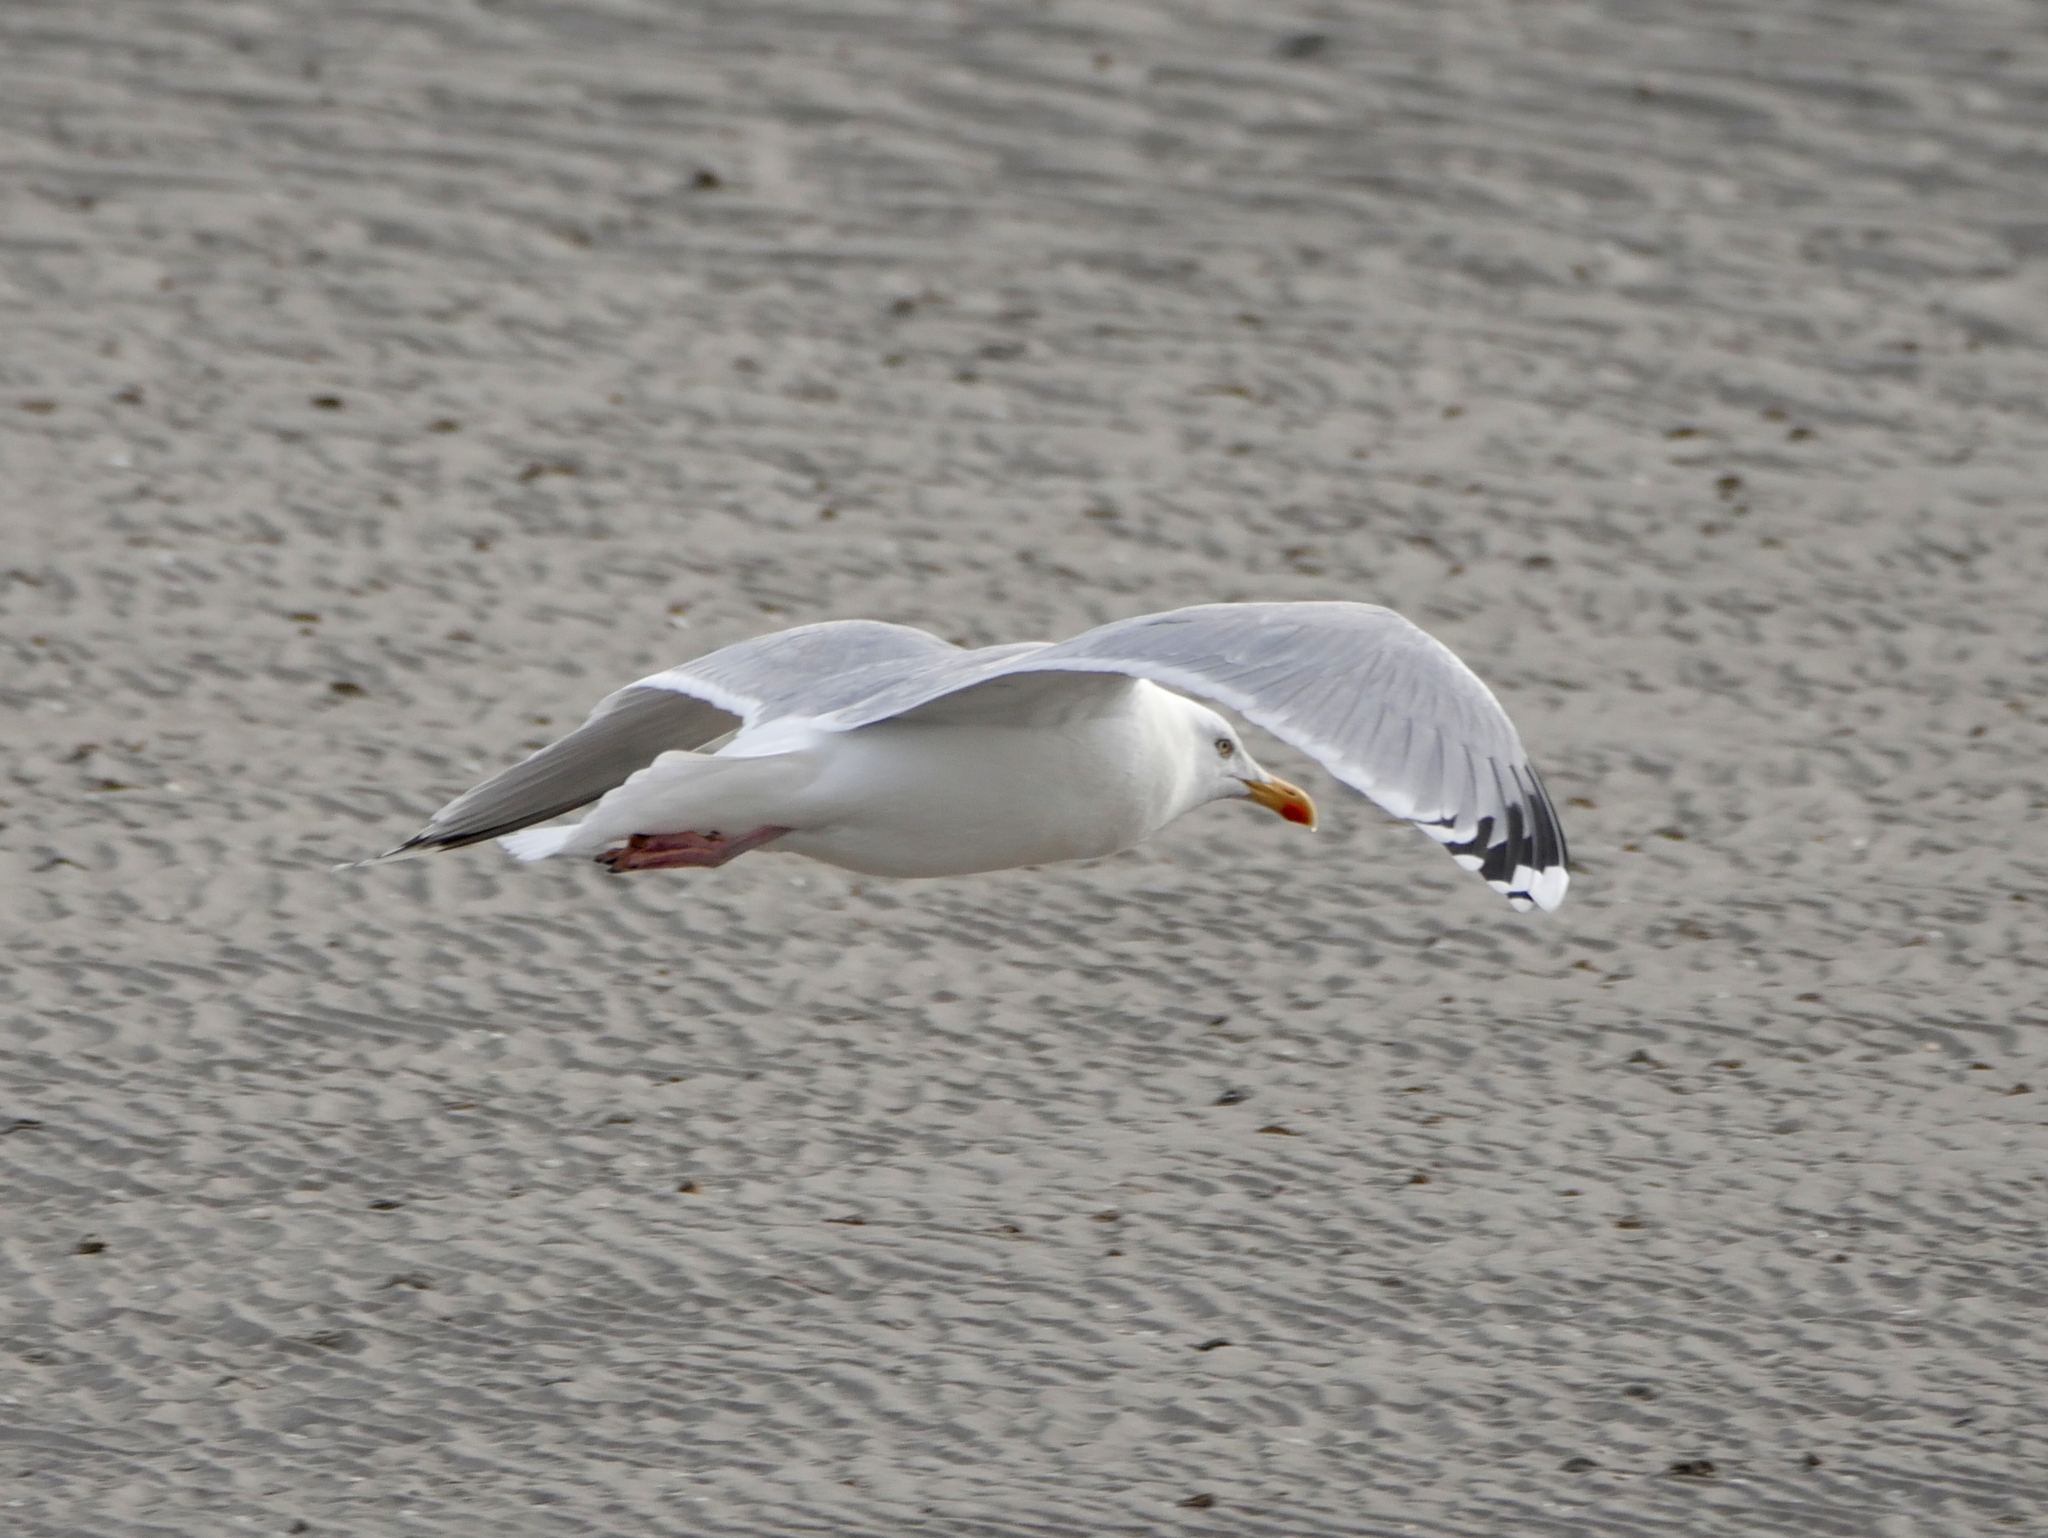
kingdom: Animalia
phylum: Chordata
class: Aves
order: Charadriiformes
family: Laridae
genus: Larus
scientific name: Larus argentatus
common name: Herring gull
